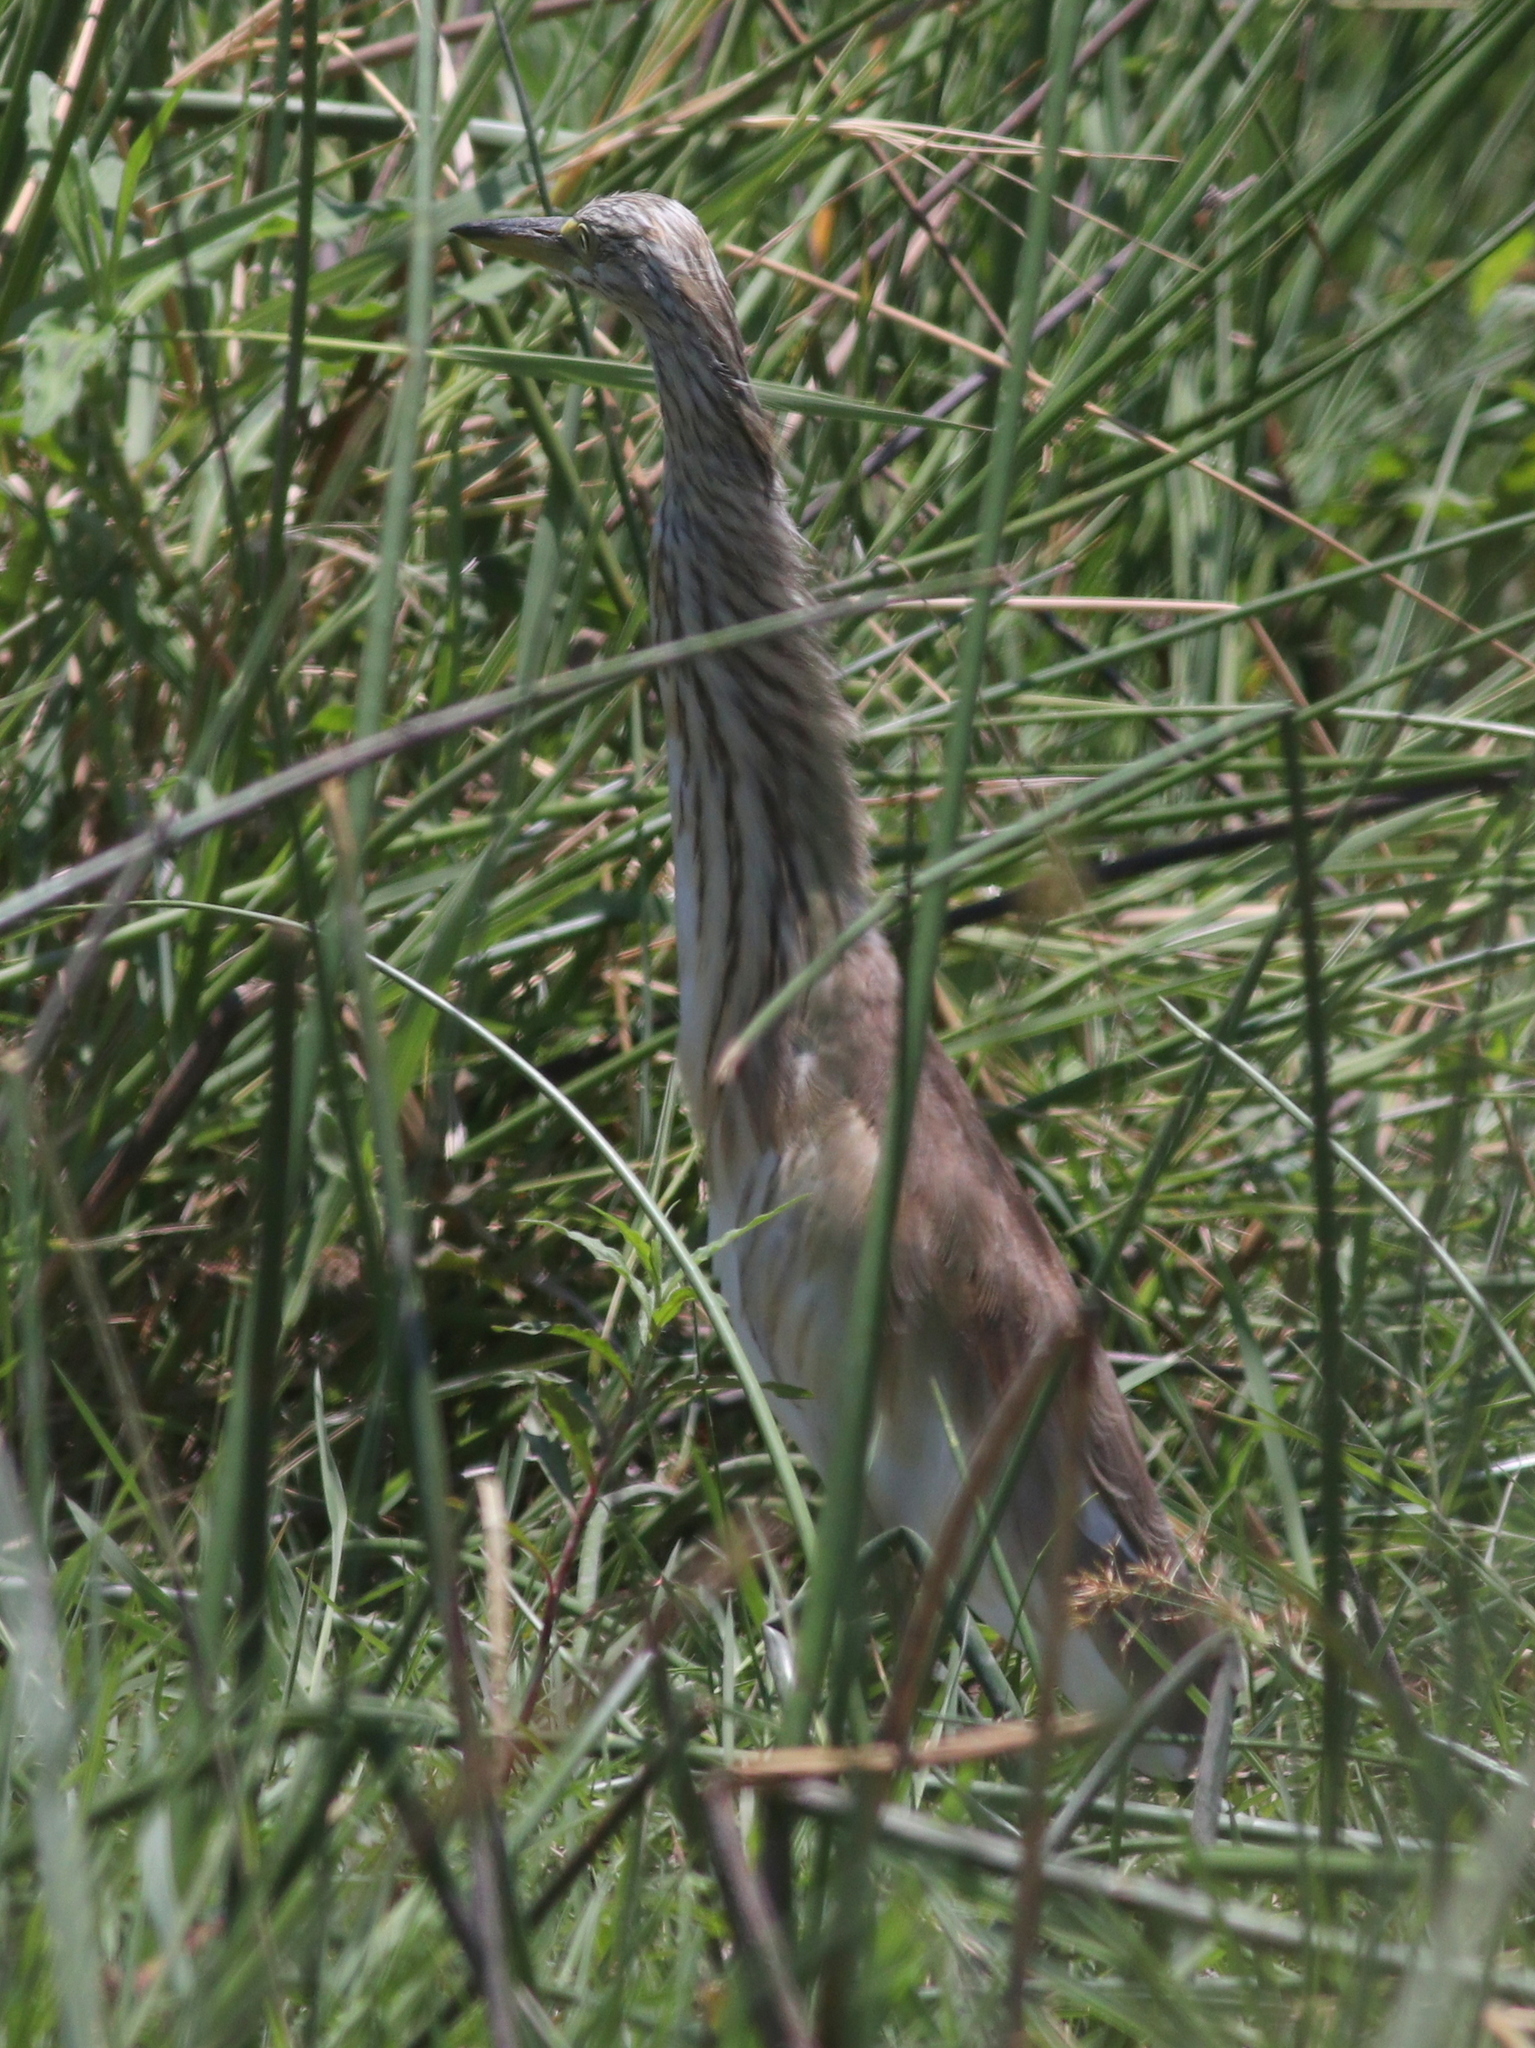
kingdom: Animalia
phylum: Chordata
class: Aves
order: Pelecaniformes
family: Ardeidae
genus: Ardeola
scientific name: Ardeola ralloides
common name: Squacco heron
